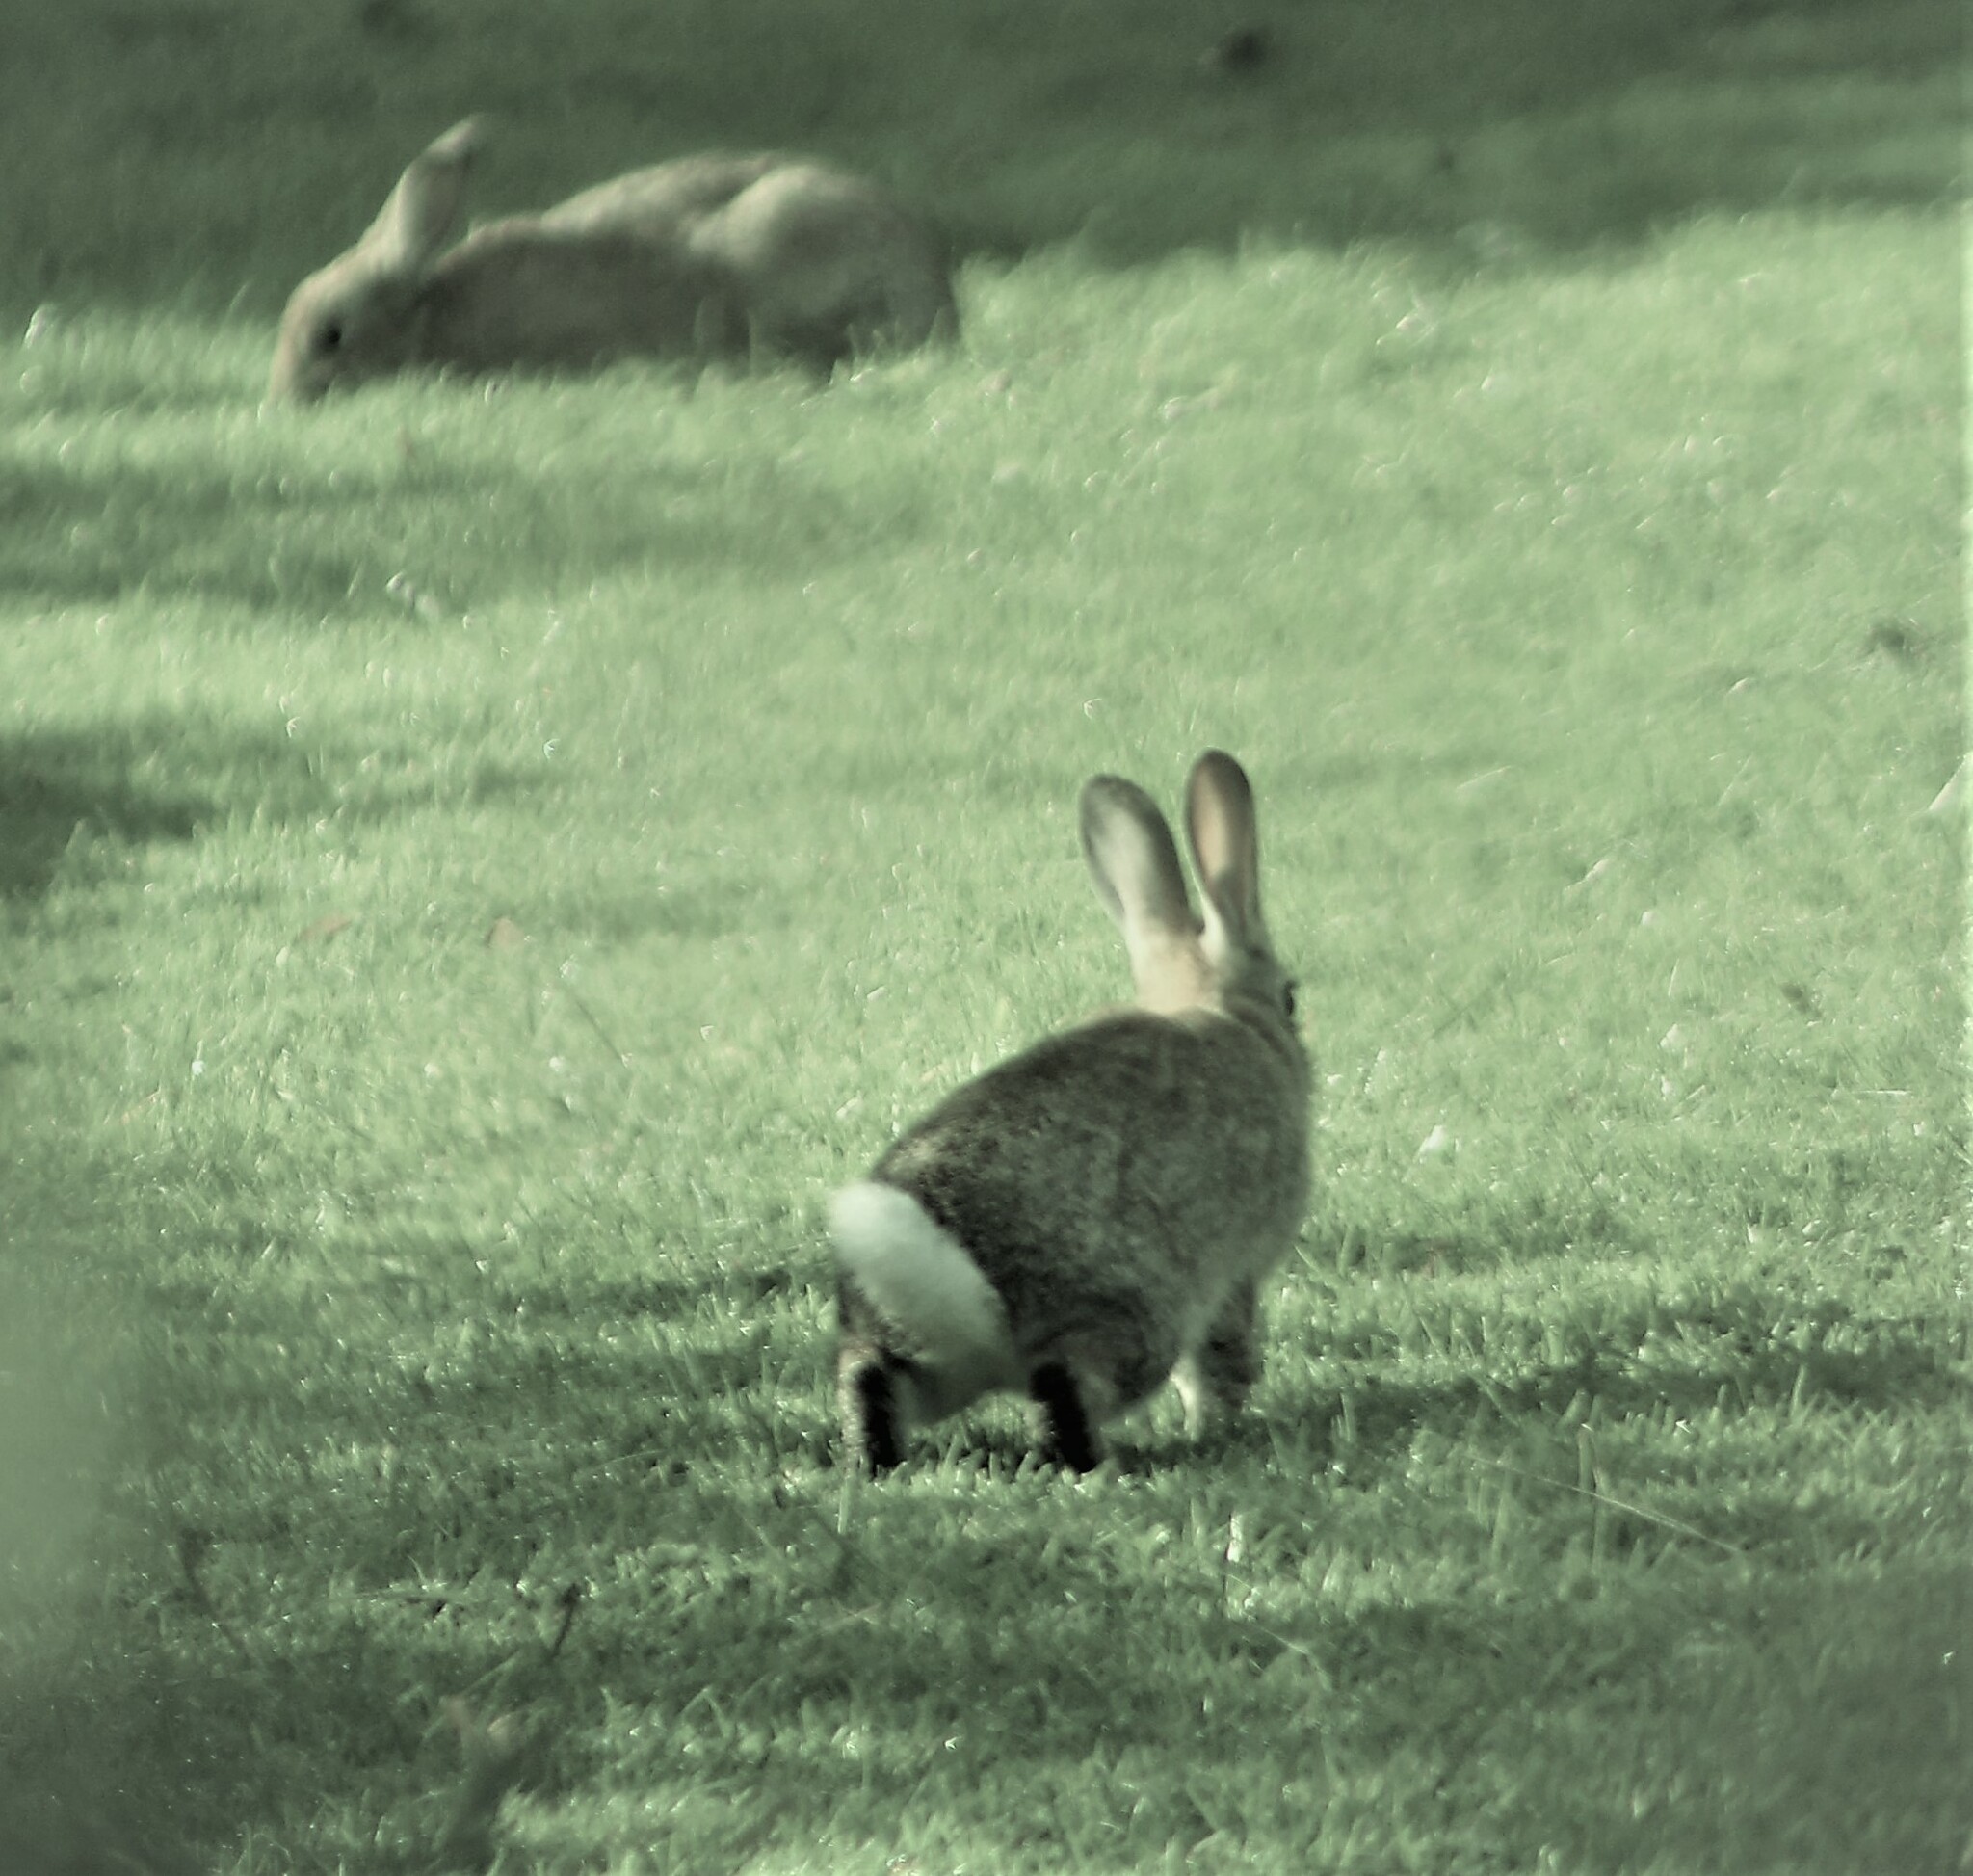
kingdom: Animalia
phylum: Chordata
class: Mammalia
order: Lagomorpha
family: Leporidae
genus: Oryctolagus
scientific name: Oryctolagus cuniculus
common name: European rabbit
